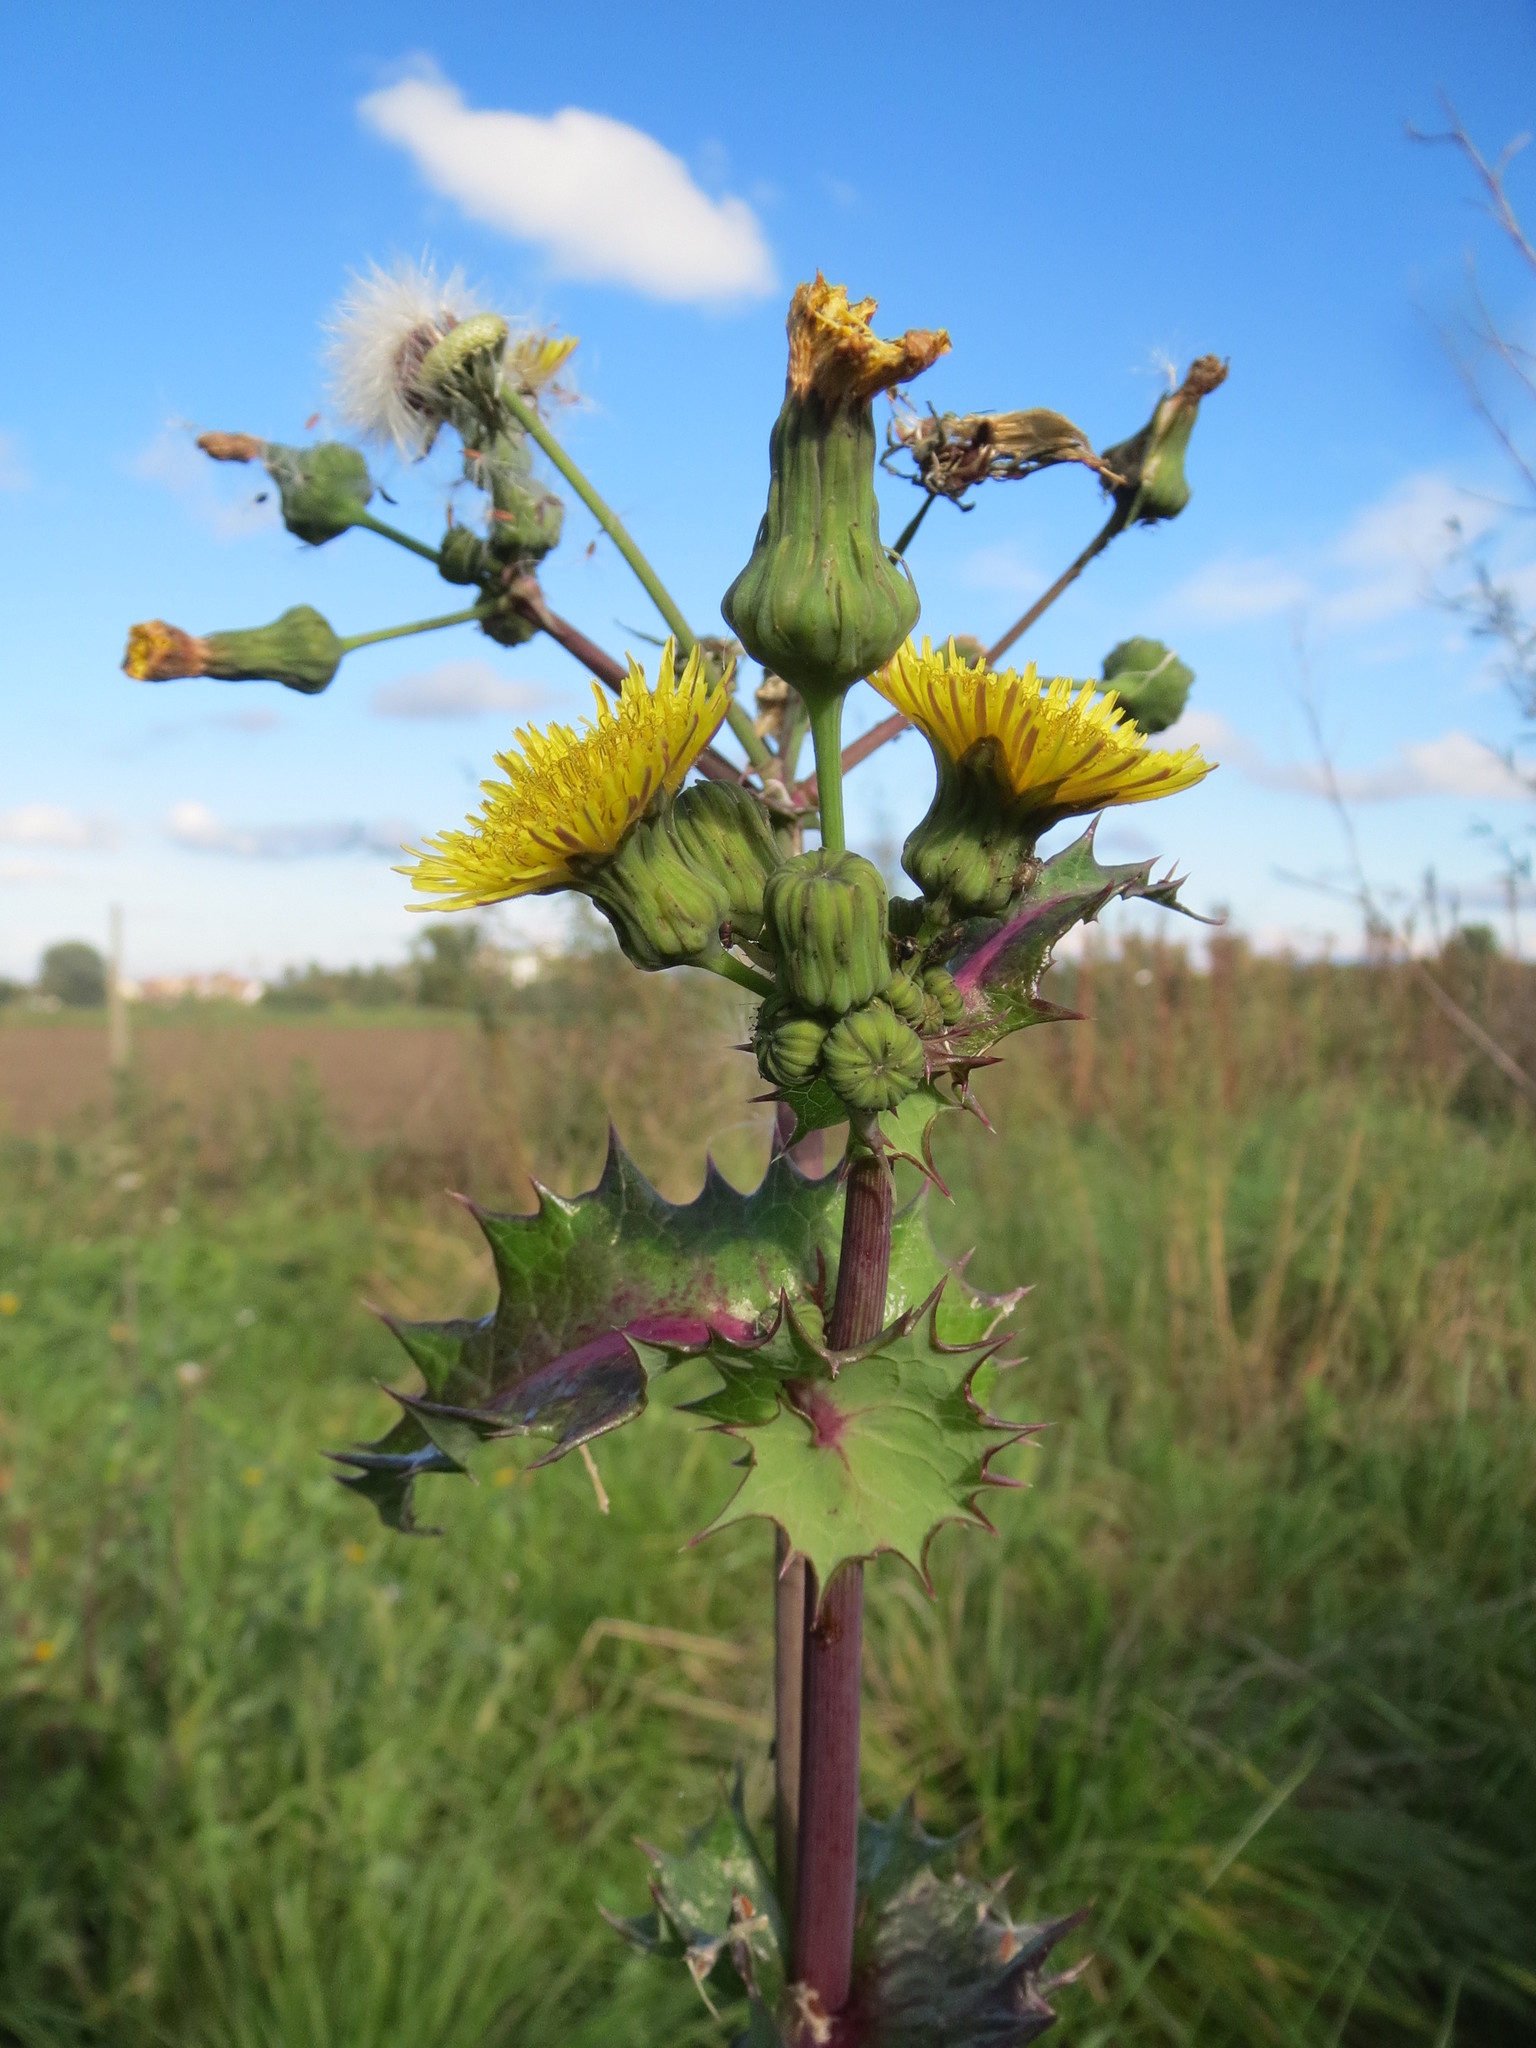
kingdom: Plantae
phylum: Tracheophyta
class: Magnoliopsida
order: Asterales
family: Asteraceae
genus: Sonchus
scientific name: Sonchus asper
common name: Prickly sow-thistle
